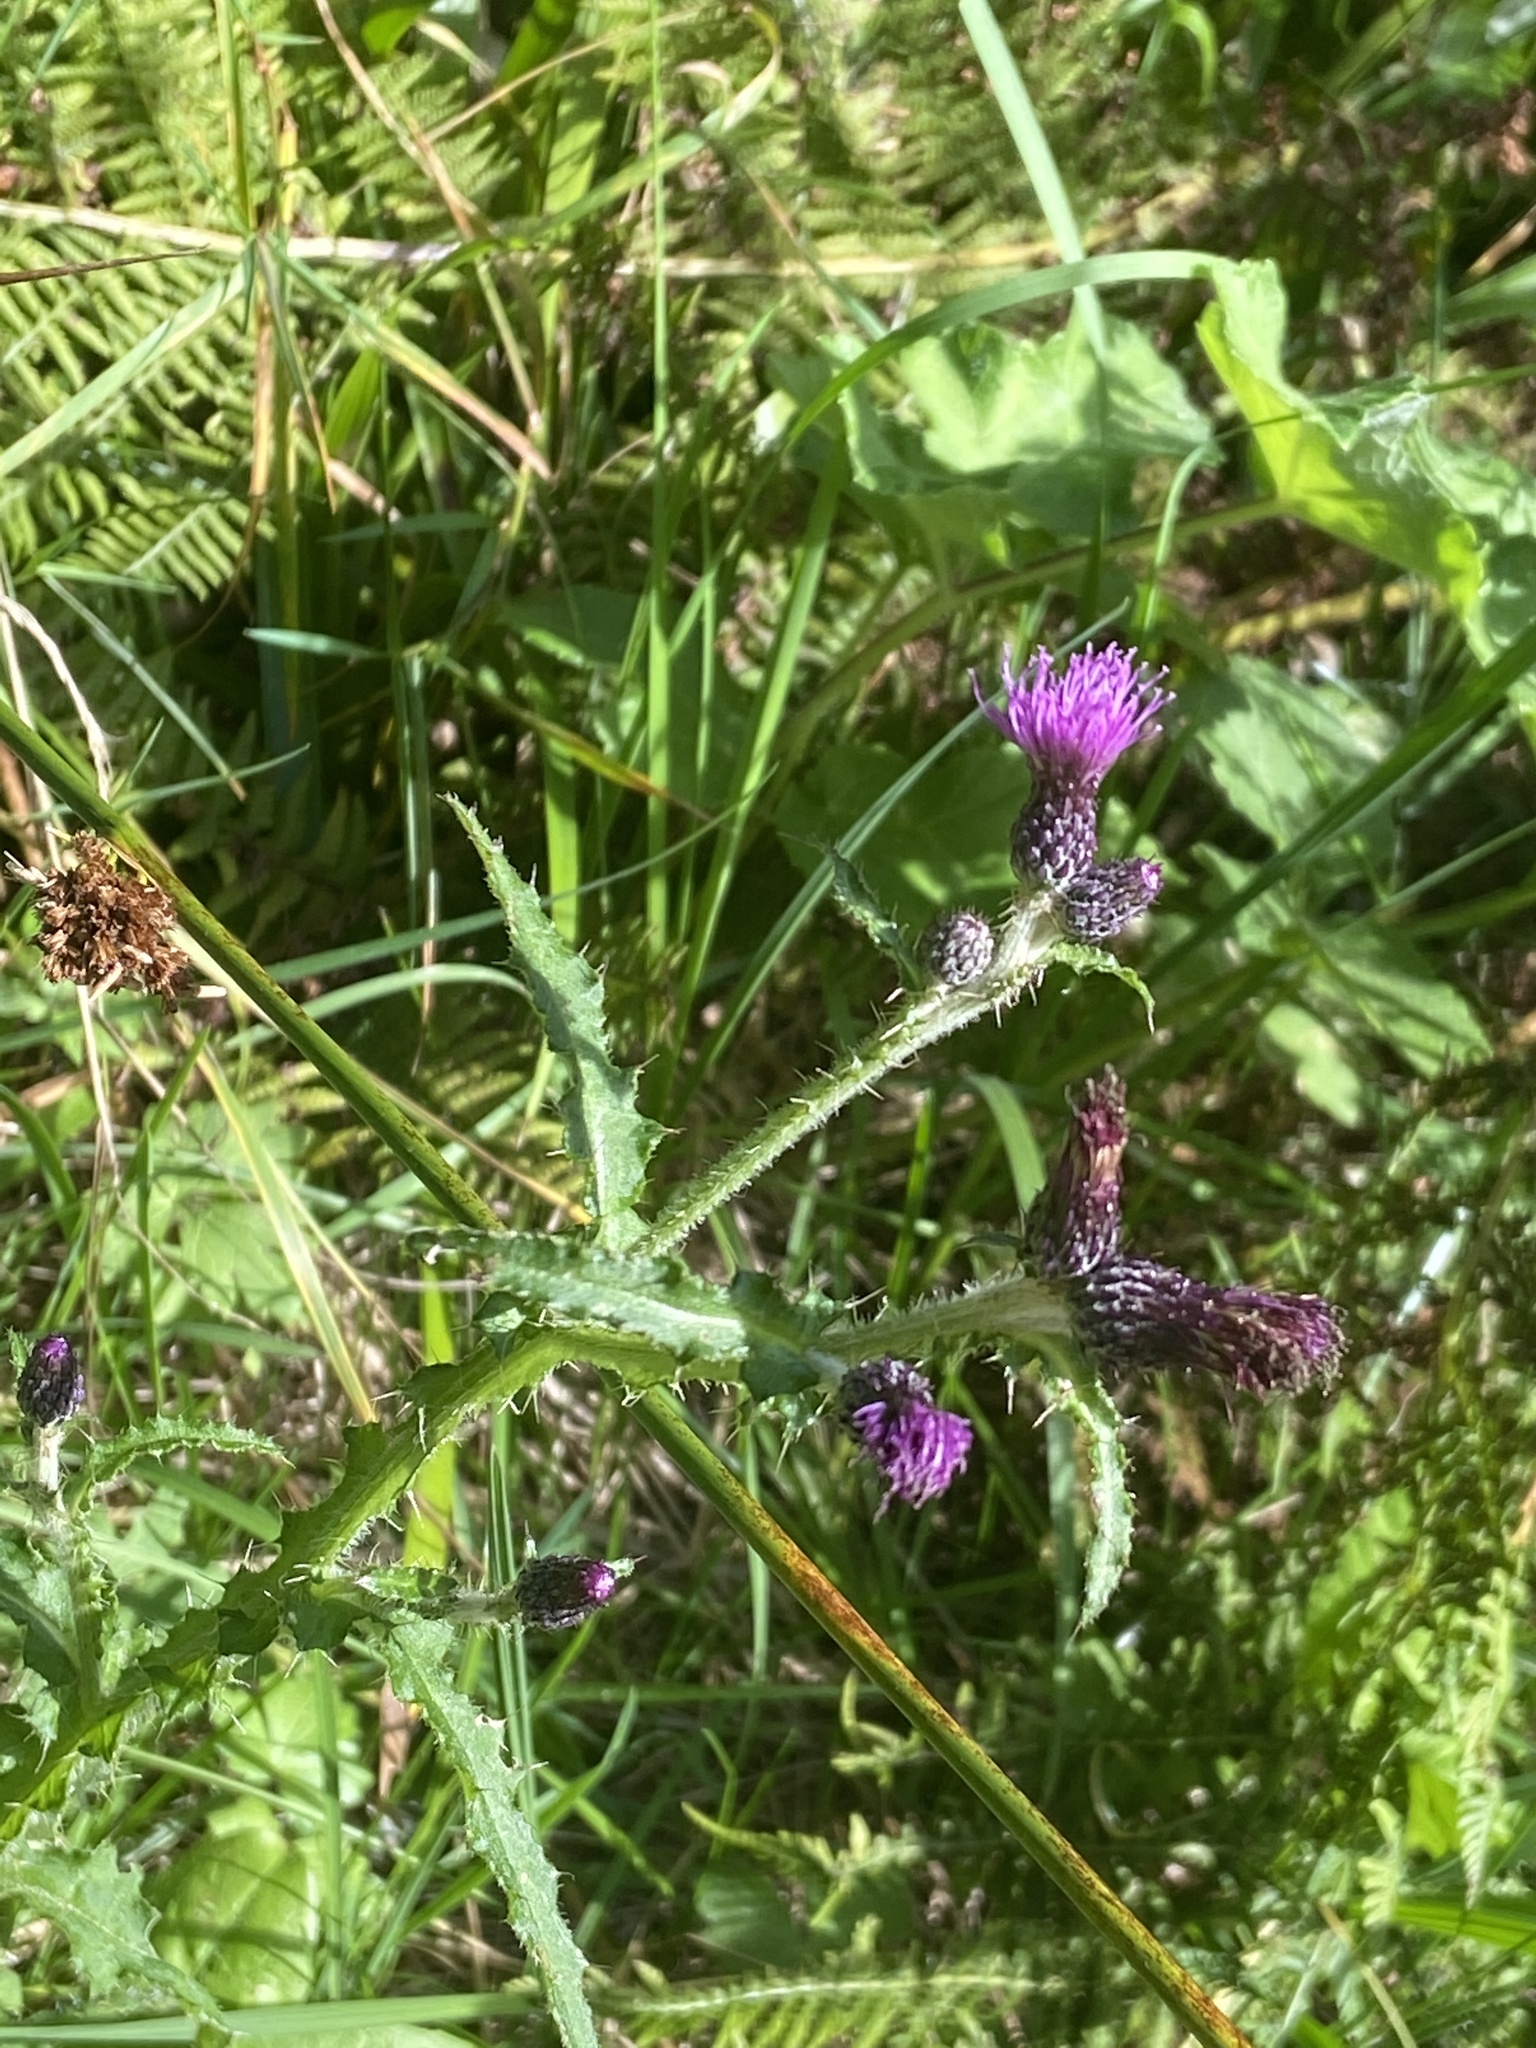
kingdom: Plantae
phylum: Tracheophyta
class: Magnoliopsida
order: Asterales
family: Asteraceae
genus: Cirsium
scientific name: Cirsium palustre
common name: Marsh thistle
